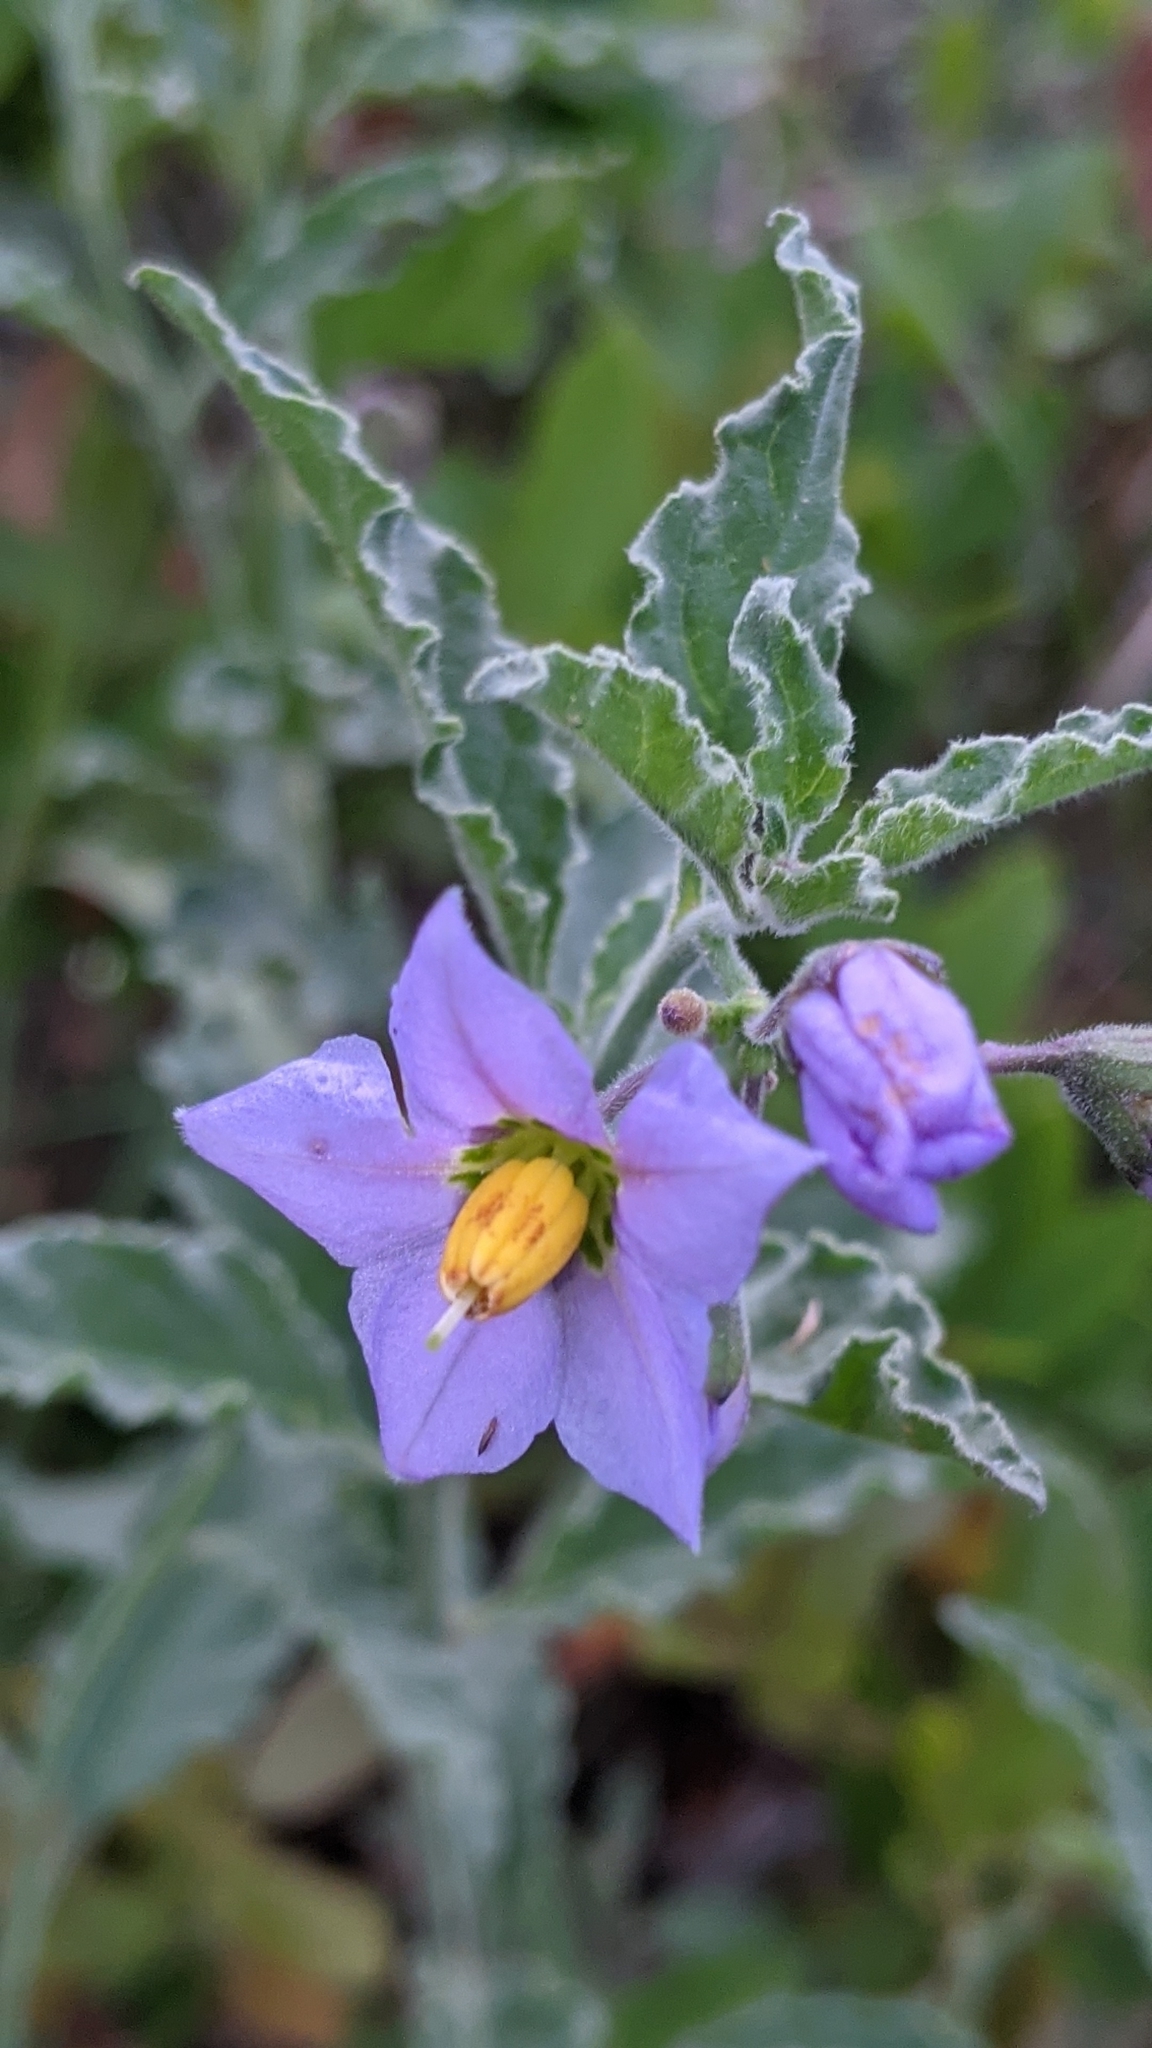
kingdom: Plantae
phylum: Tracheophyta
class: Magnoliopsida
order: Solanales
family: Solanaceae
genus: Solanum
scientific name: Solanum umbelliferum
